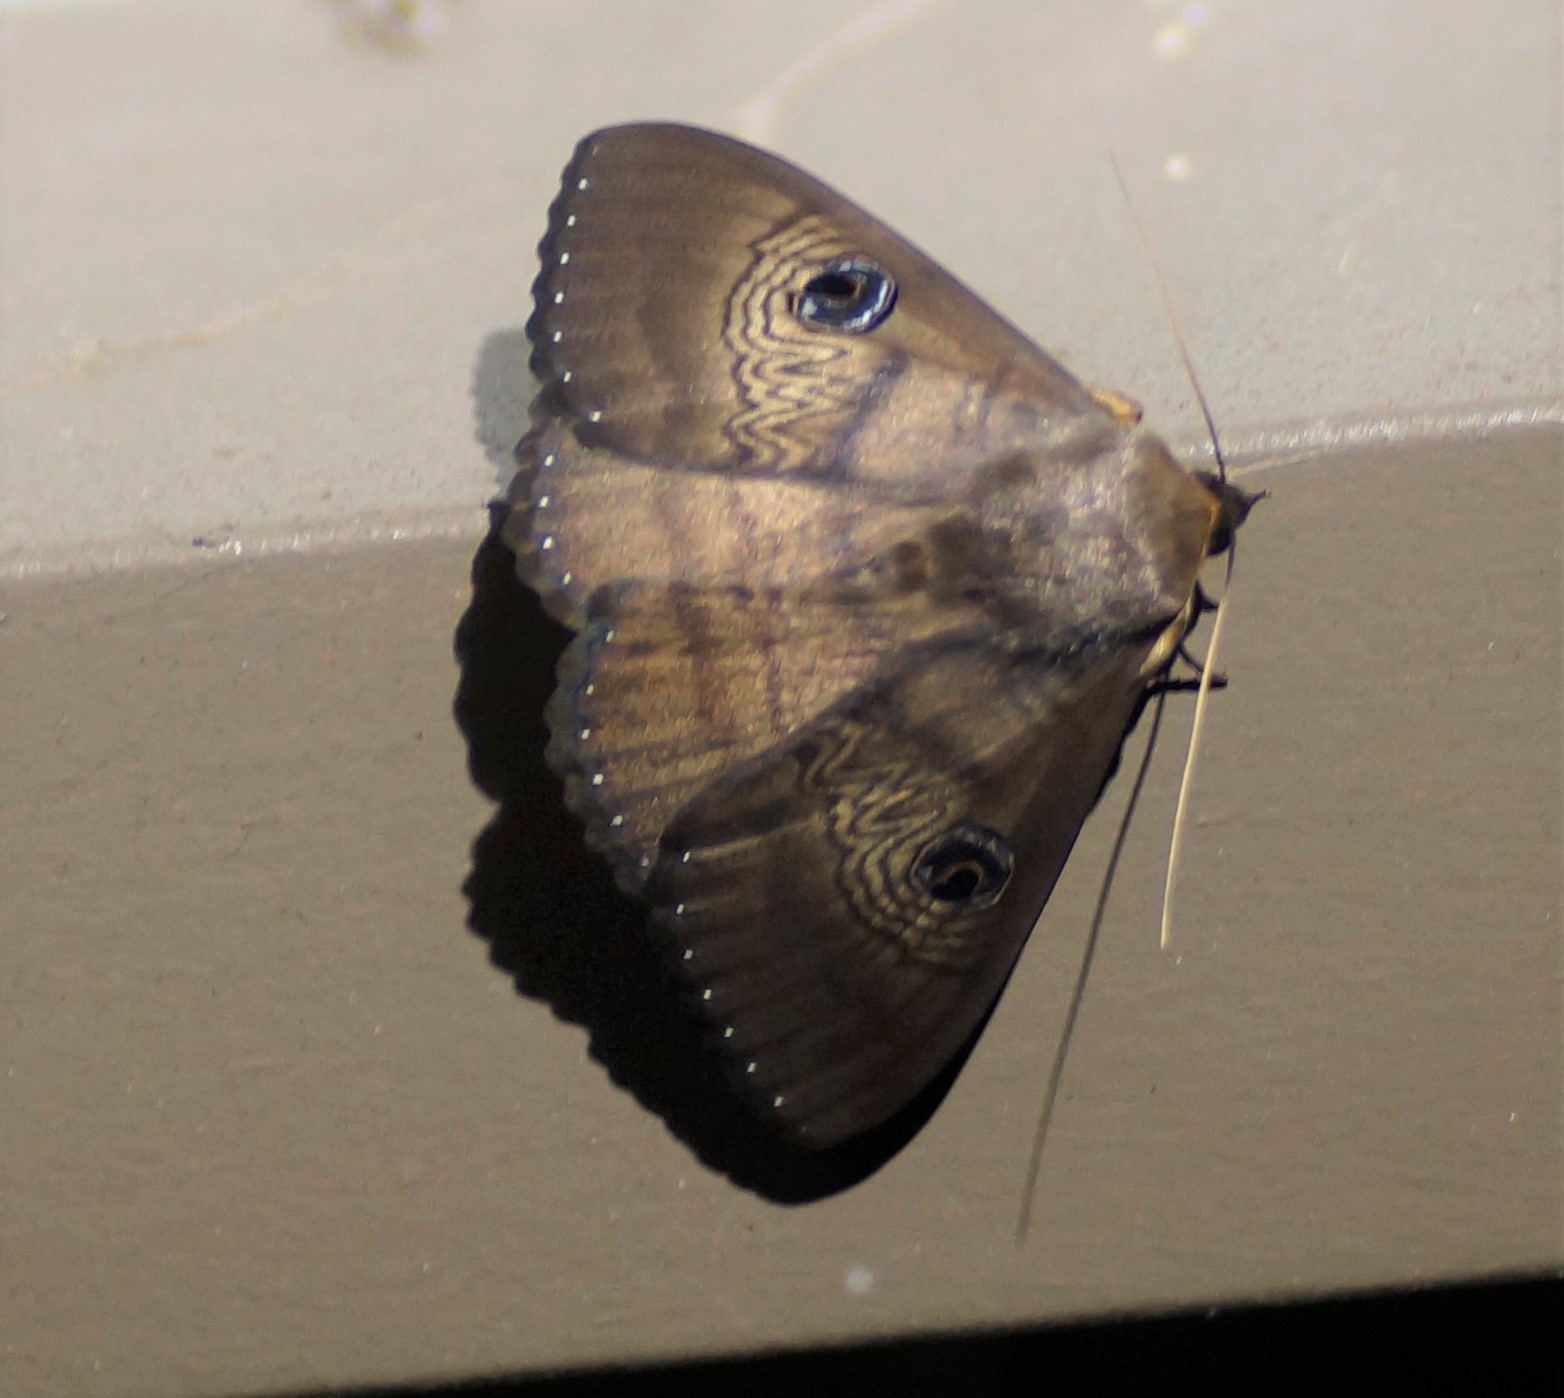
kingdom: Animalia
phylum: Arthropoda
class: Insecta
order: Lepidoptera
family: Erebidae
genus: Dasypodia
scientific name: Dasypodia selenophora
